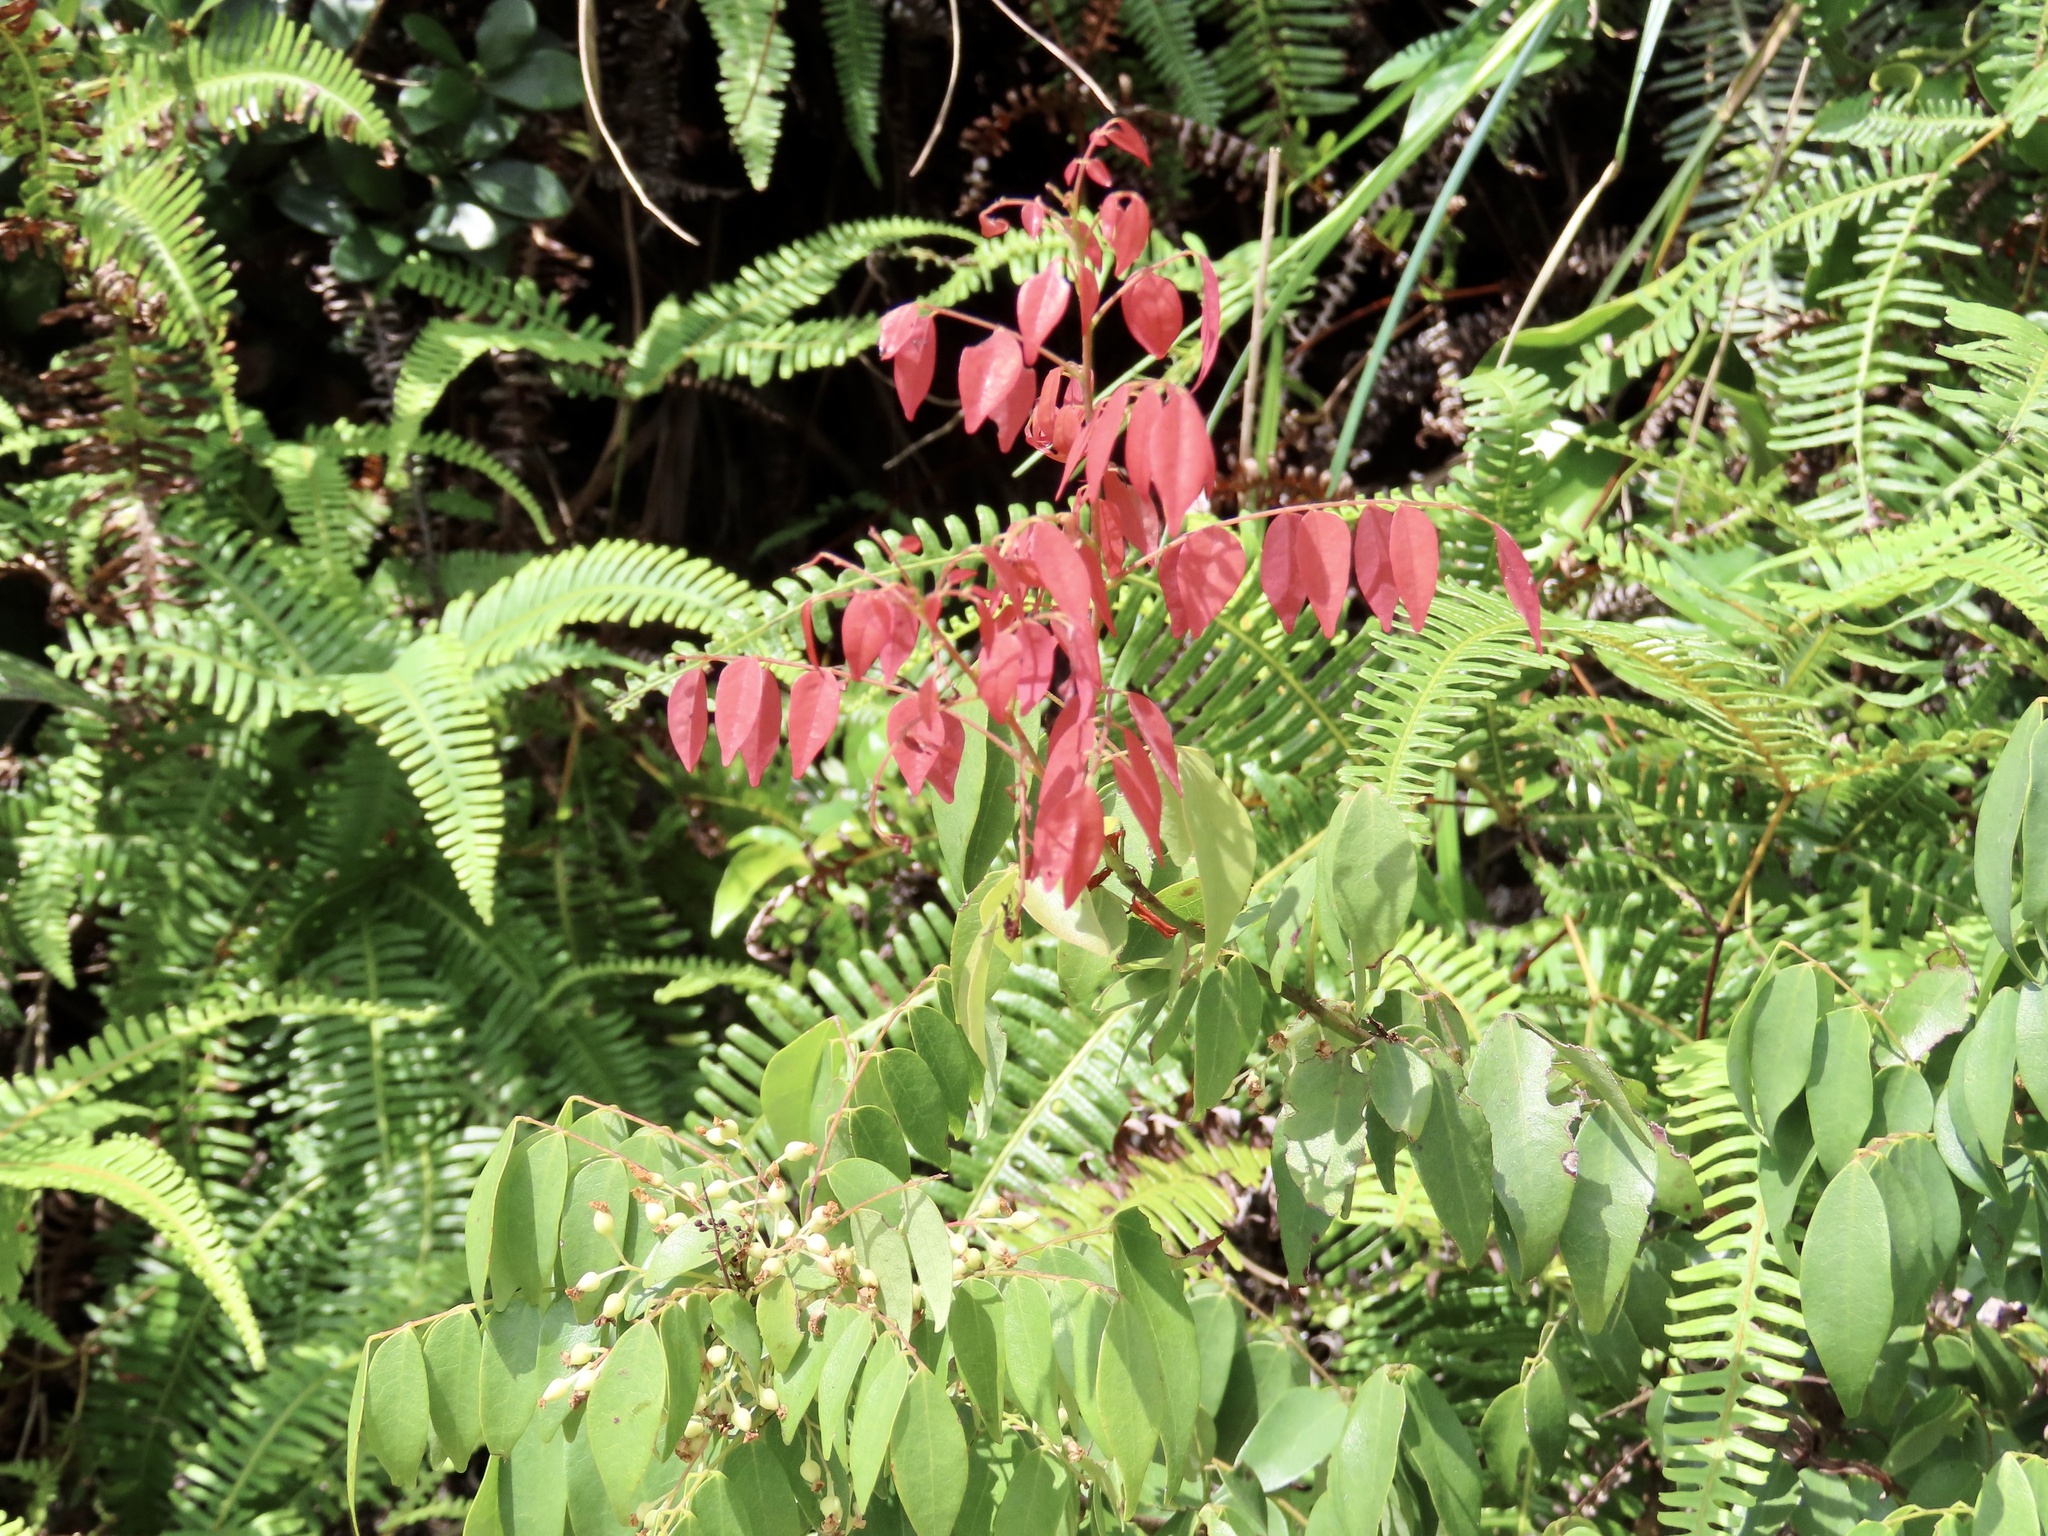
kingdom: Plantae
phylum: Tracheophyta
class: Magnoliopsida
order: Oxalidales
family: Connaraceae
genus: Rourea
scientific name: Rourea microphylla
